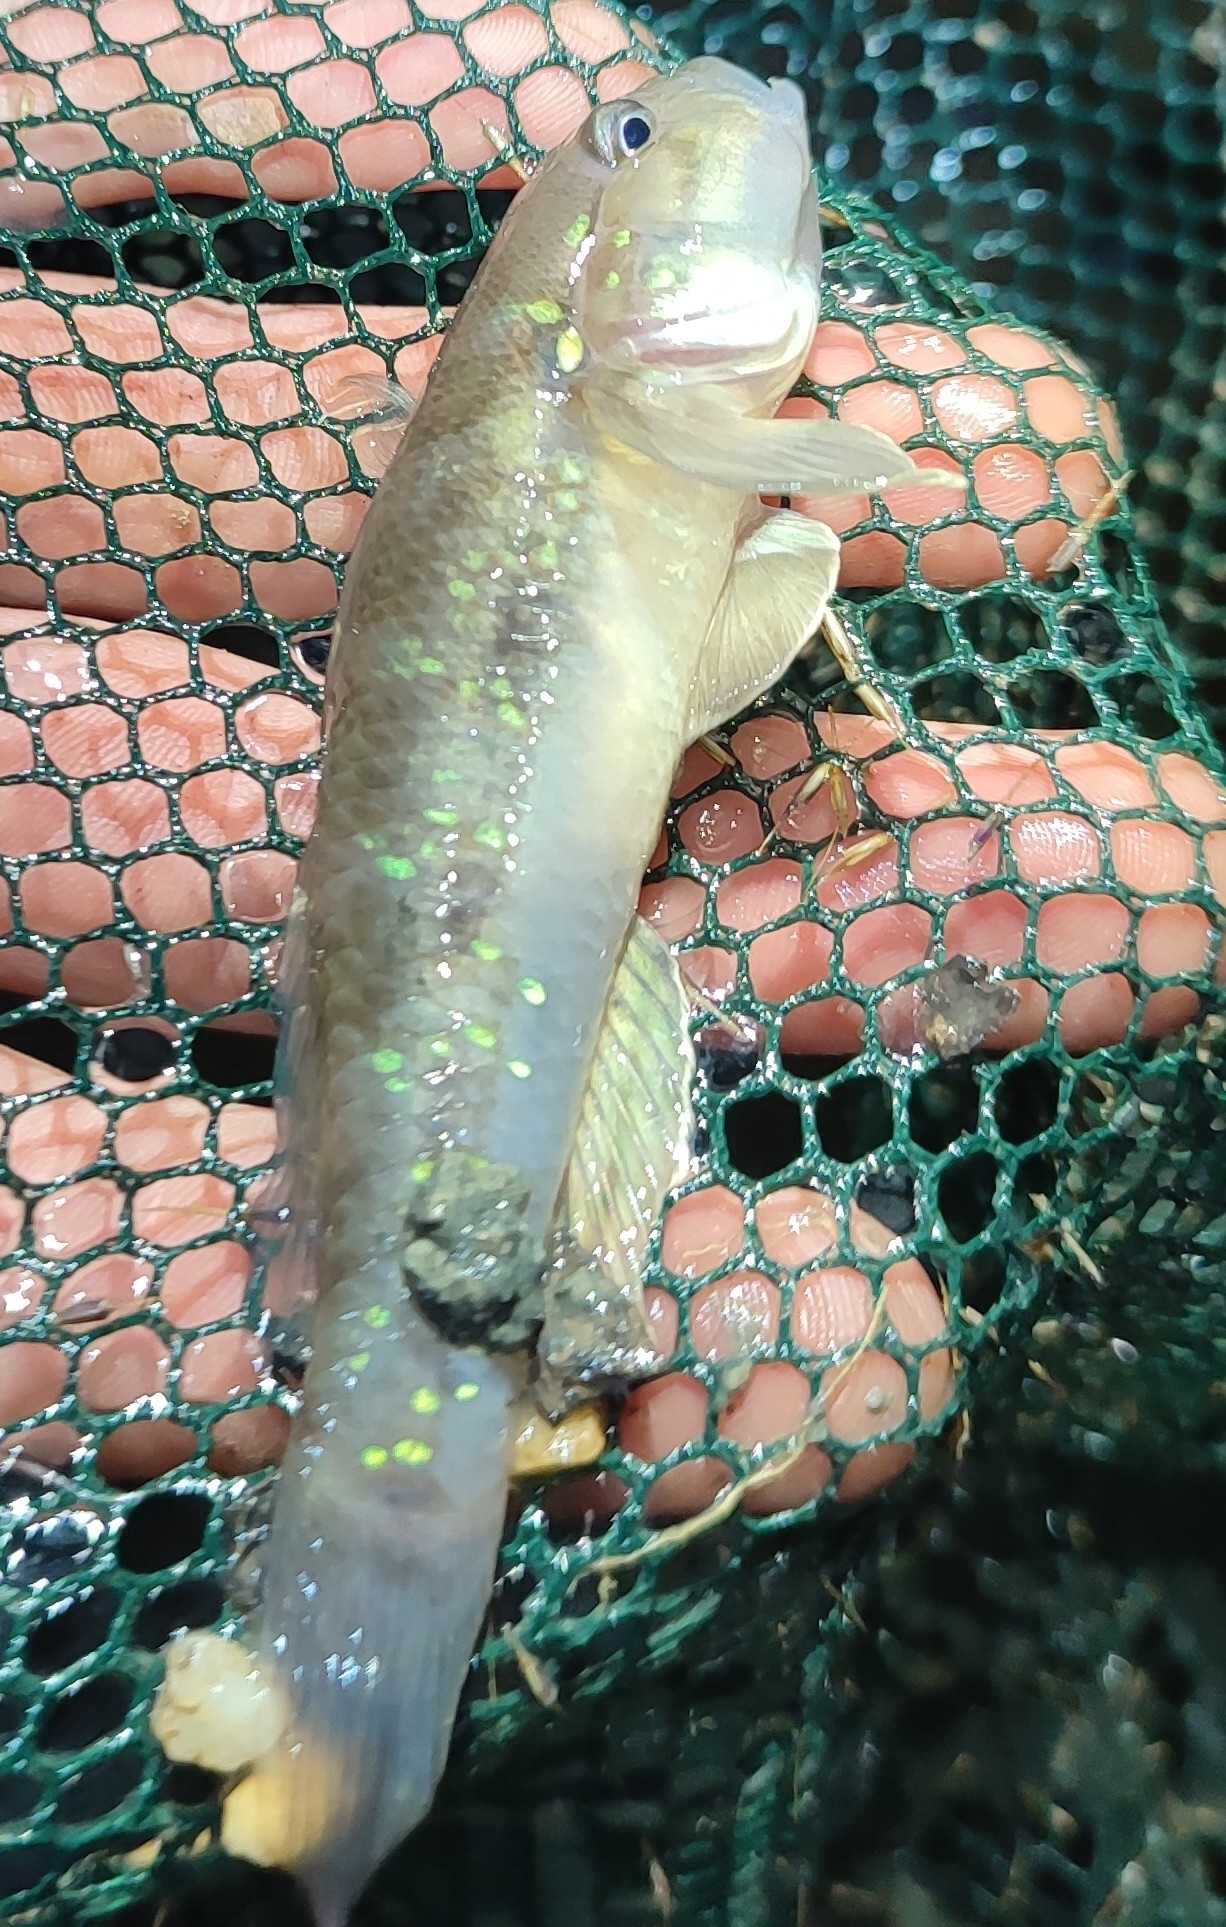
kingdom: Animalia
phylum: Chordata
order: Perciformes
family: Gobiidae
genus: Acentrogobius
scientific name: Acentrogobius viridipunctatus
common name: Spotted green goby
